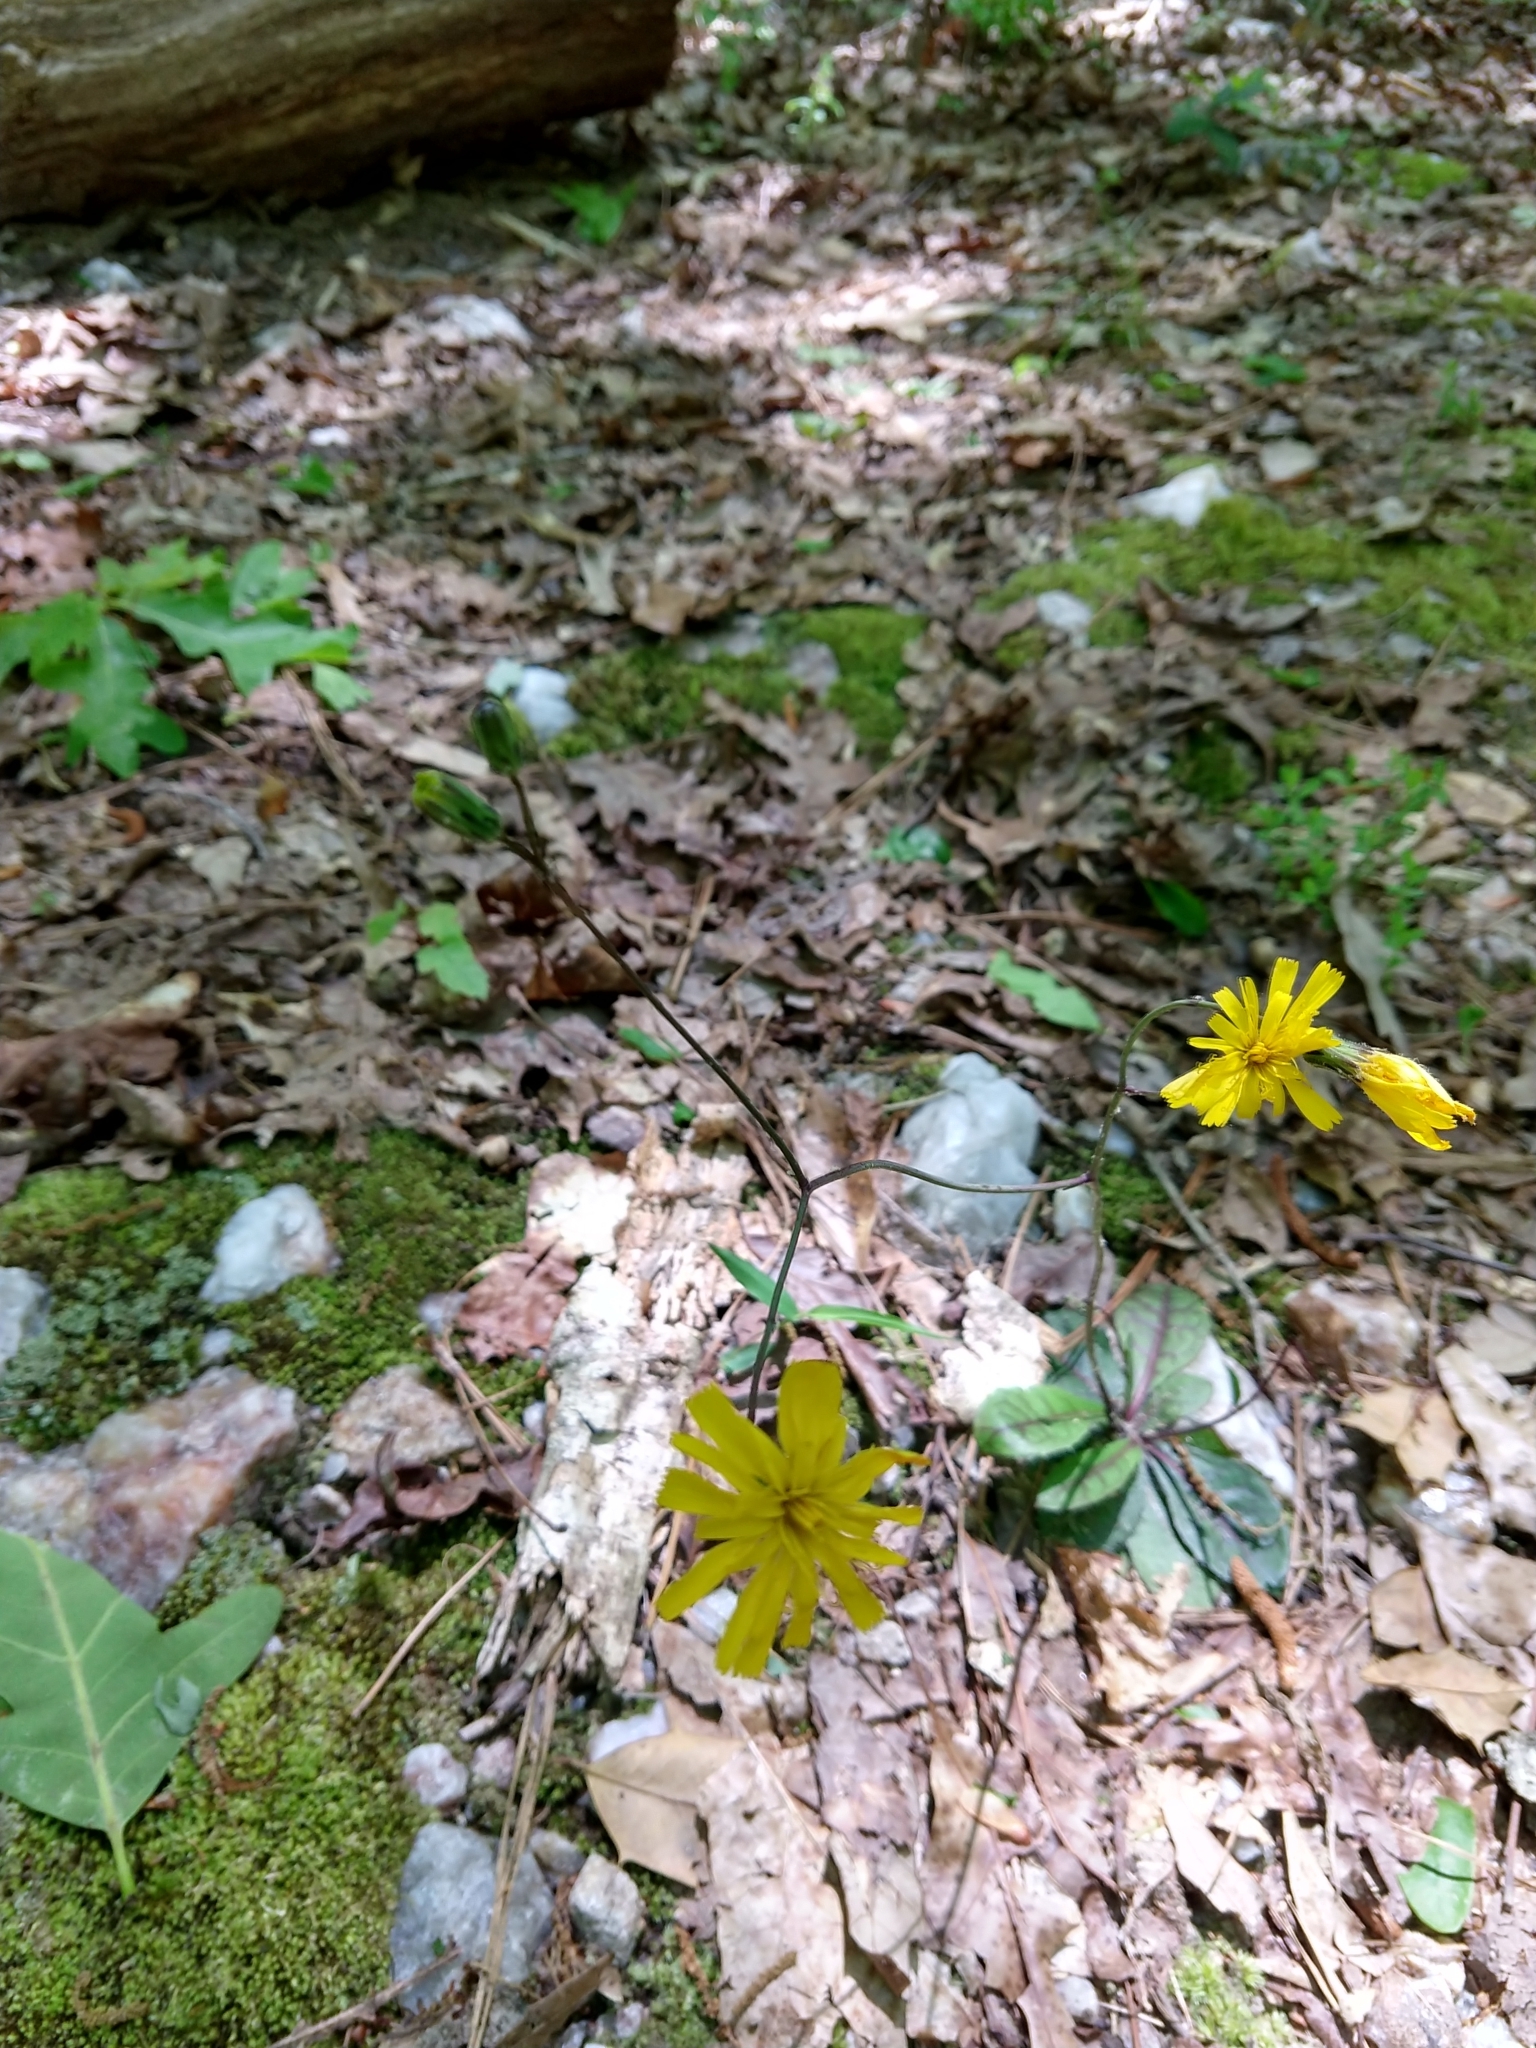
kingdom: Plantae
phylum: Tracheophyta
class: Magnoliopsida
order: Asterales
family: Asteraceae
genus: Hieracium
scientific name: Hieracium venosum
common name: Rattlesnake hawkweed
